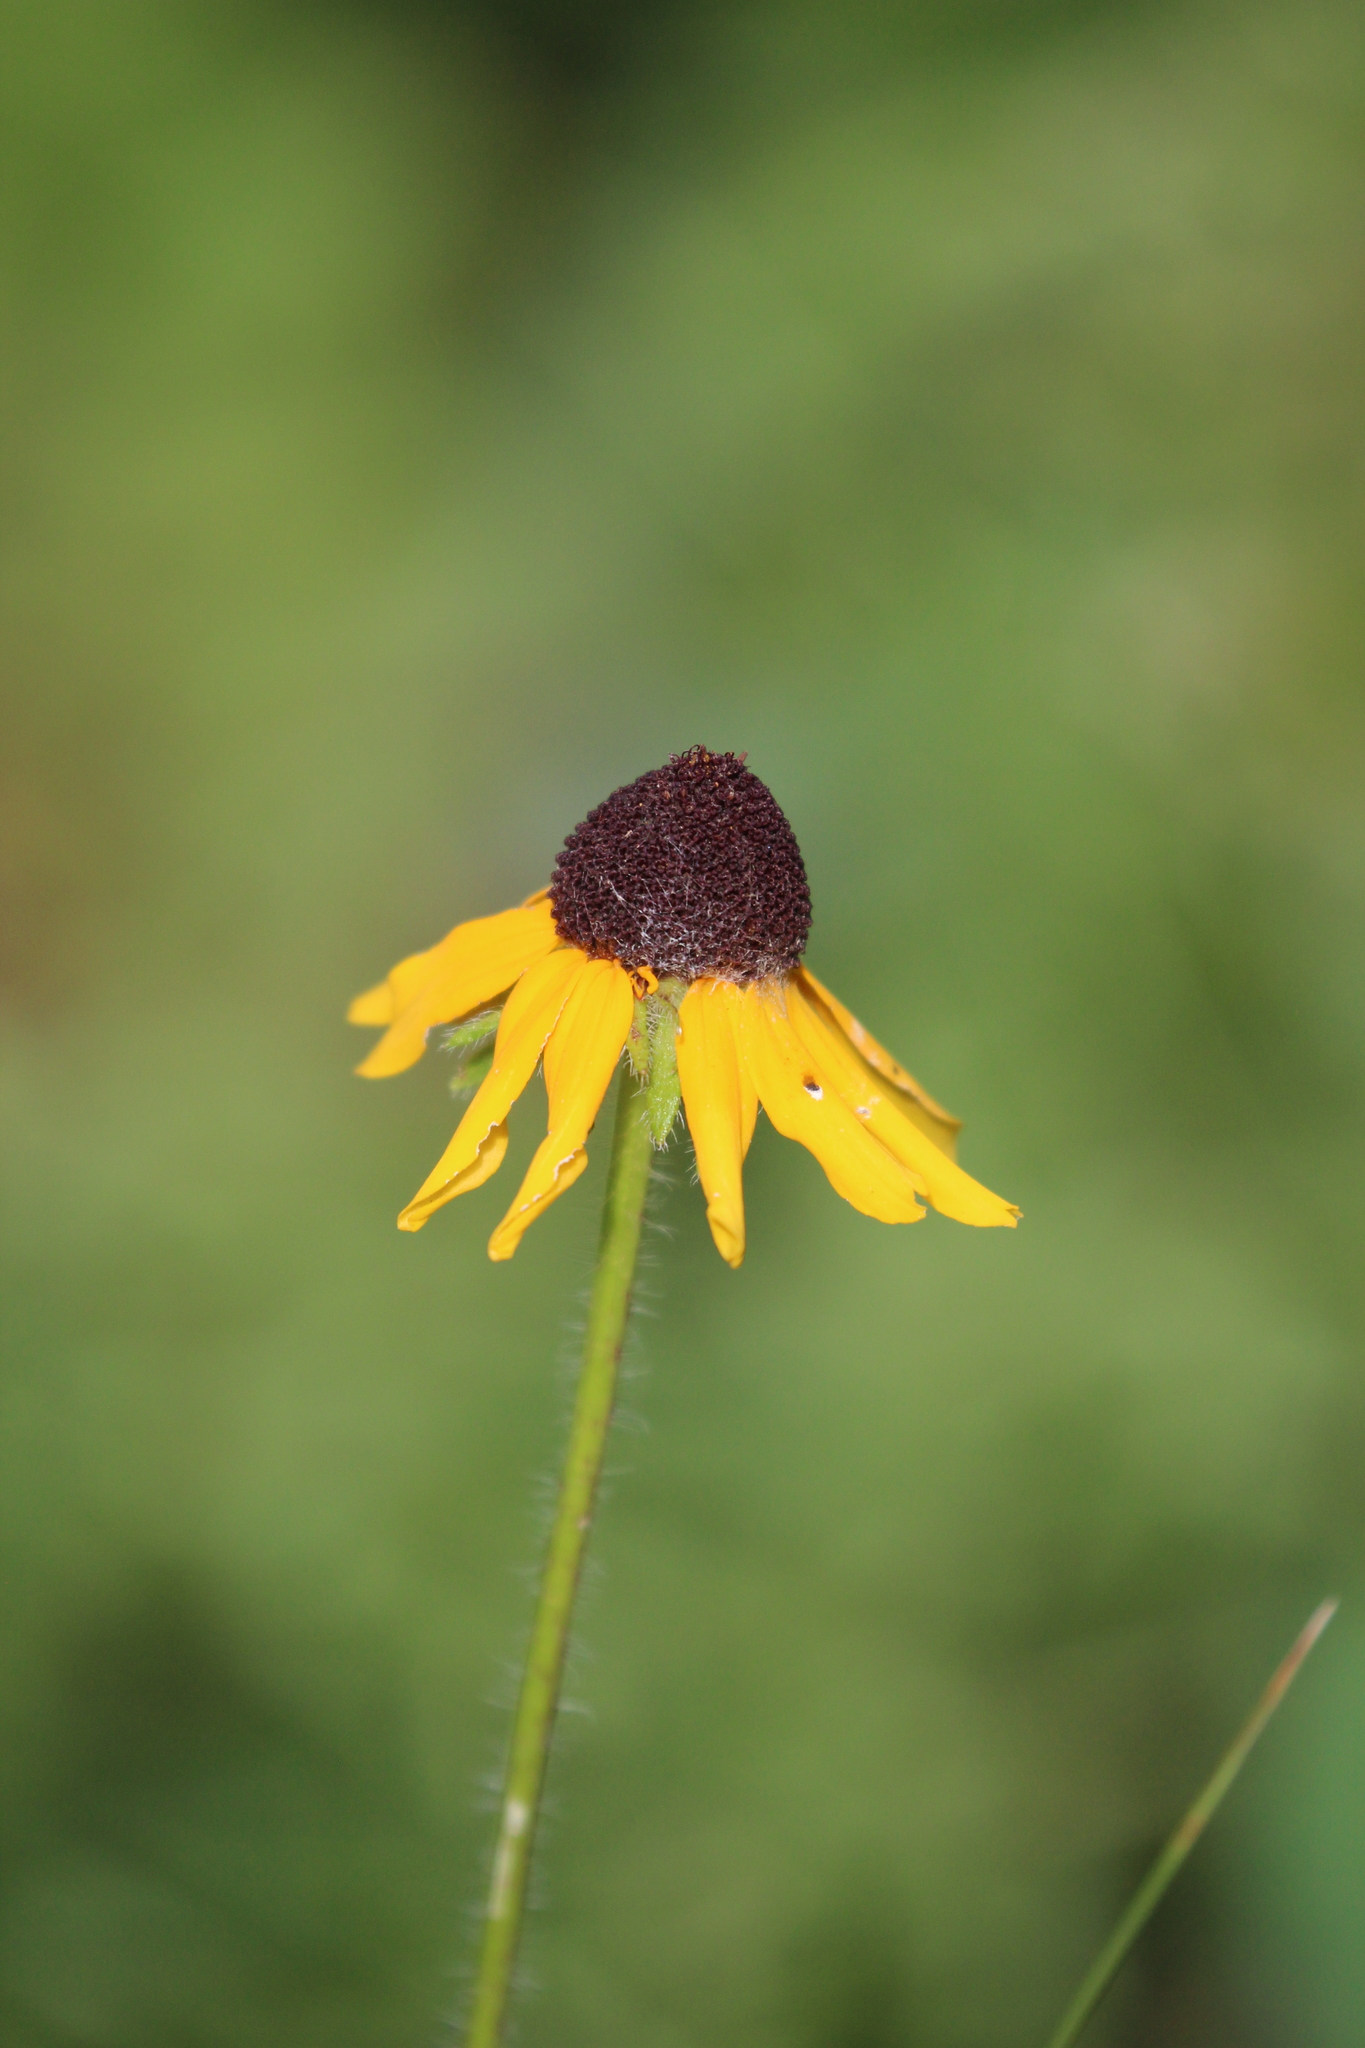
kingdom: Plantae
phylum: Tracheophyta
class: Magnoliopsida
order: Asterales
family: Asteraceae
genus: Rudbeckia
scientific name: Rudbeckia hirta
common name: Black-eyed-susan
